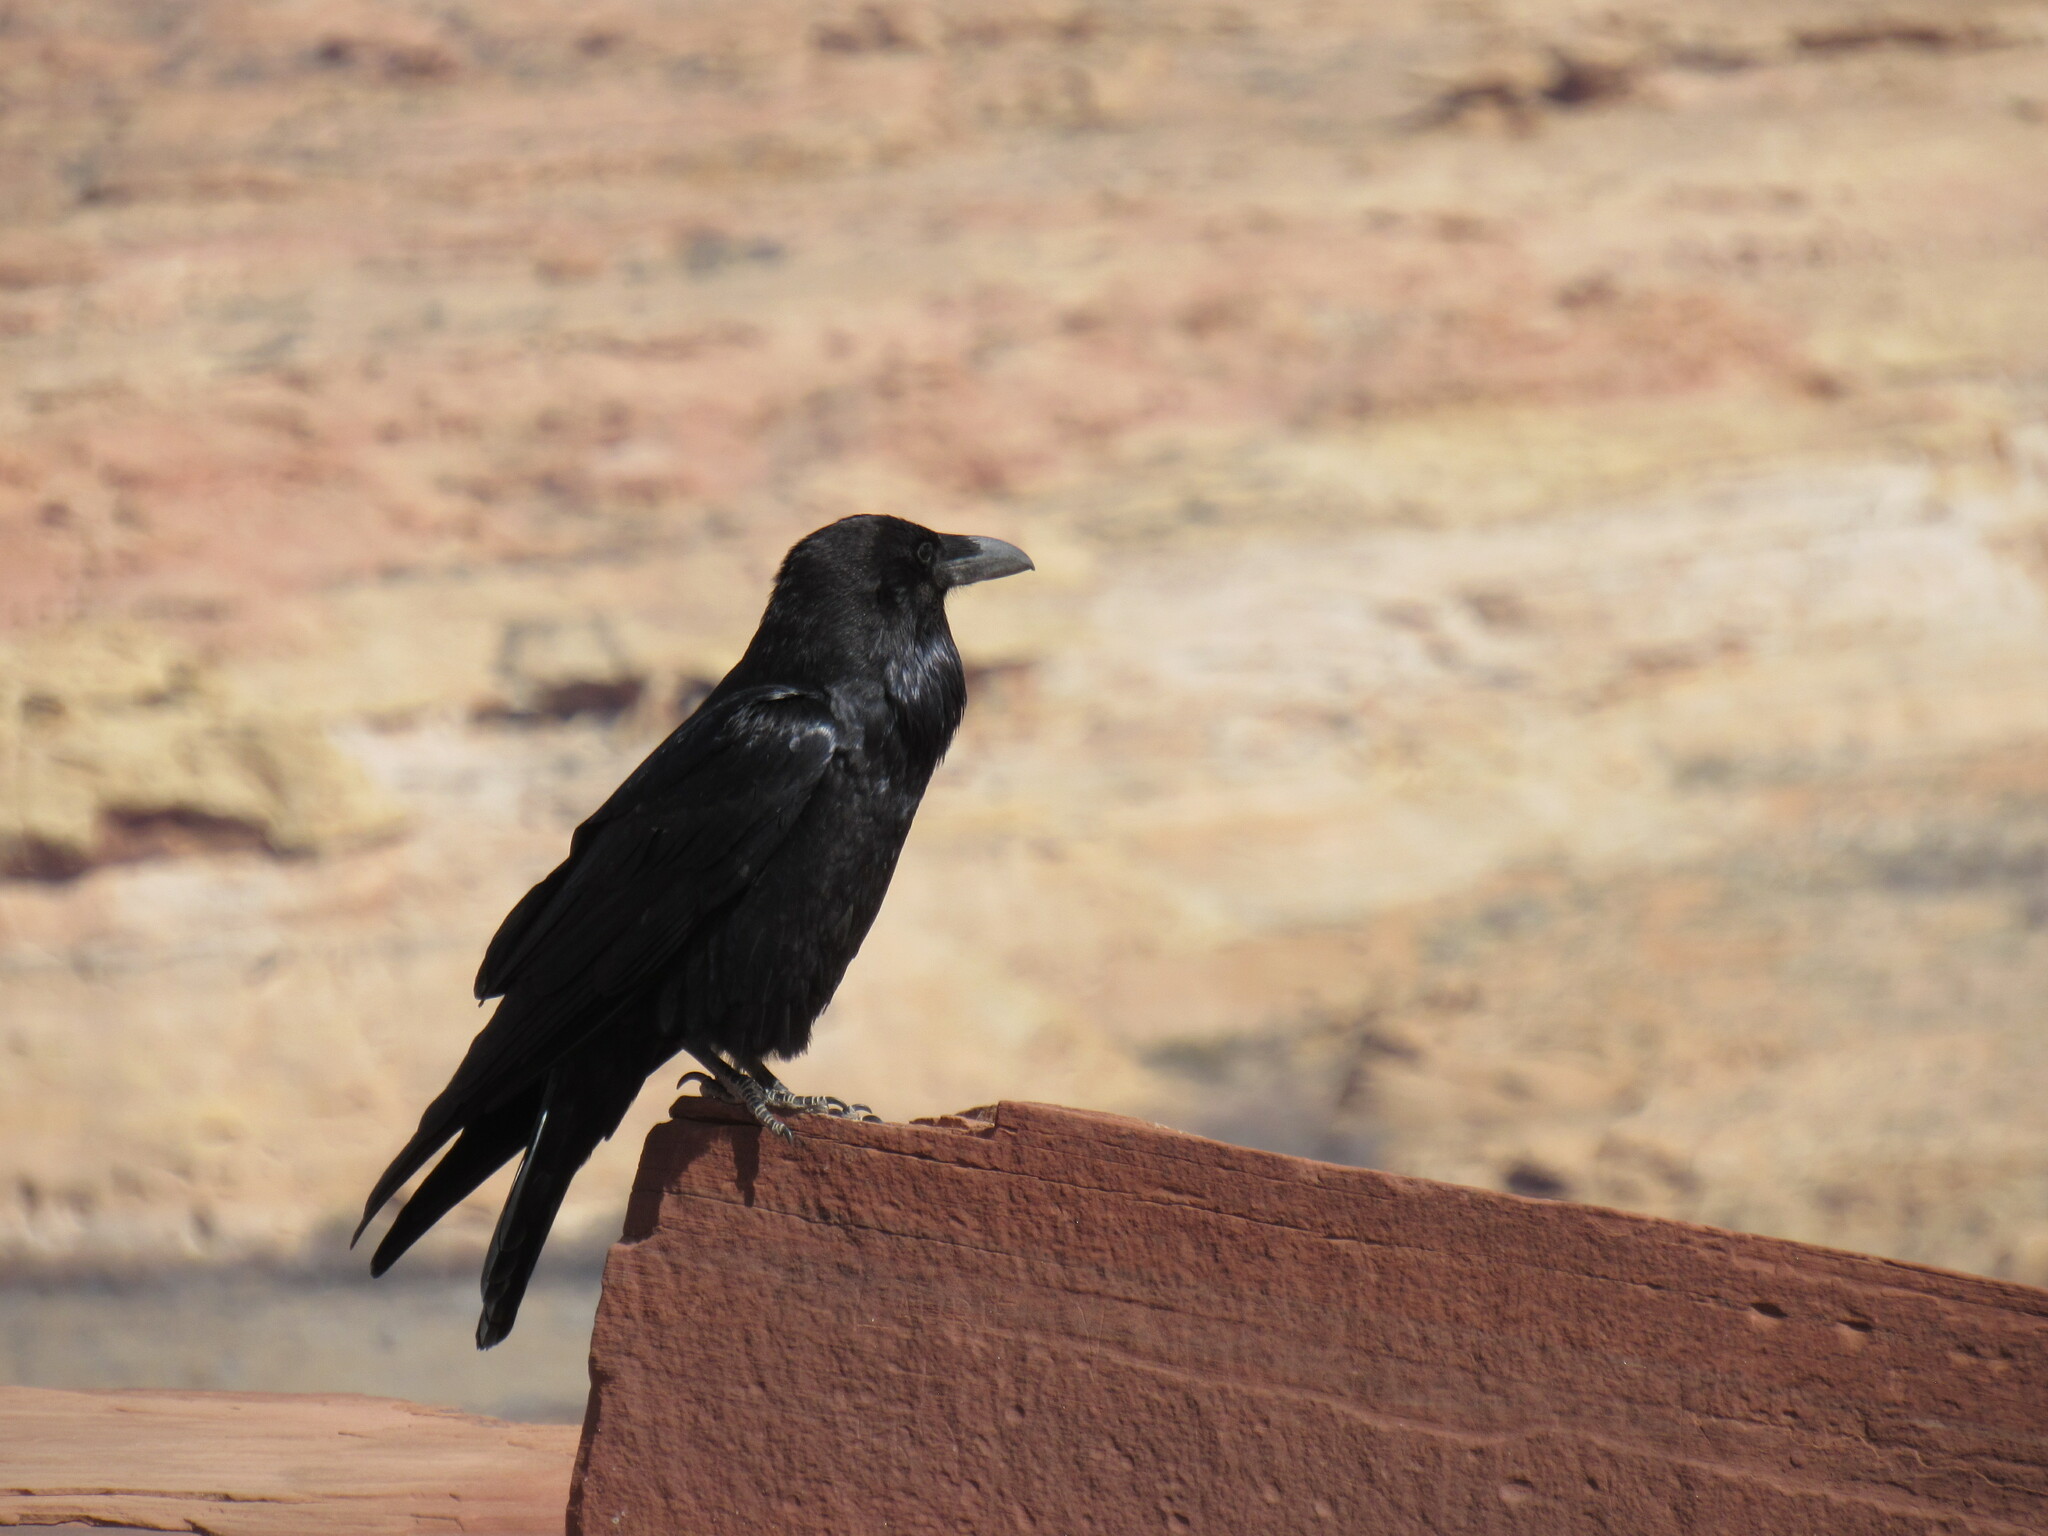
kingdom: Animalia
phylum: Chordata
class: Aves
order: Passeriformes
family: Corvidae
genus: Corvus
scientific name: Corvus corax
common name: Common raven
